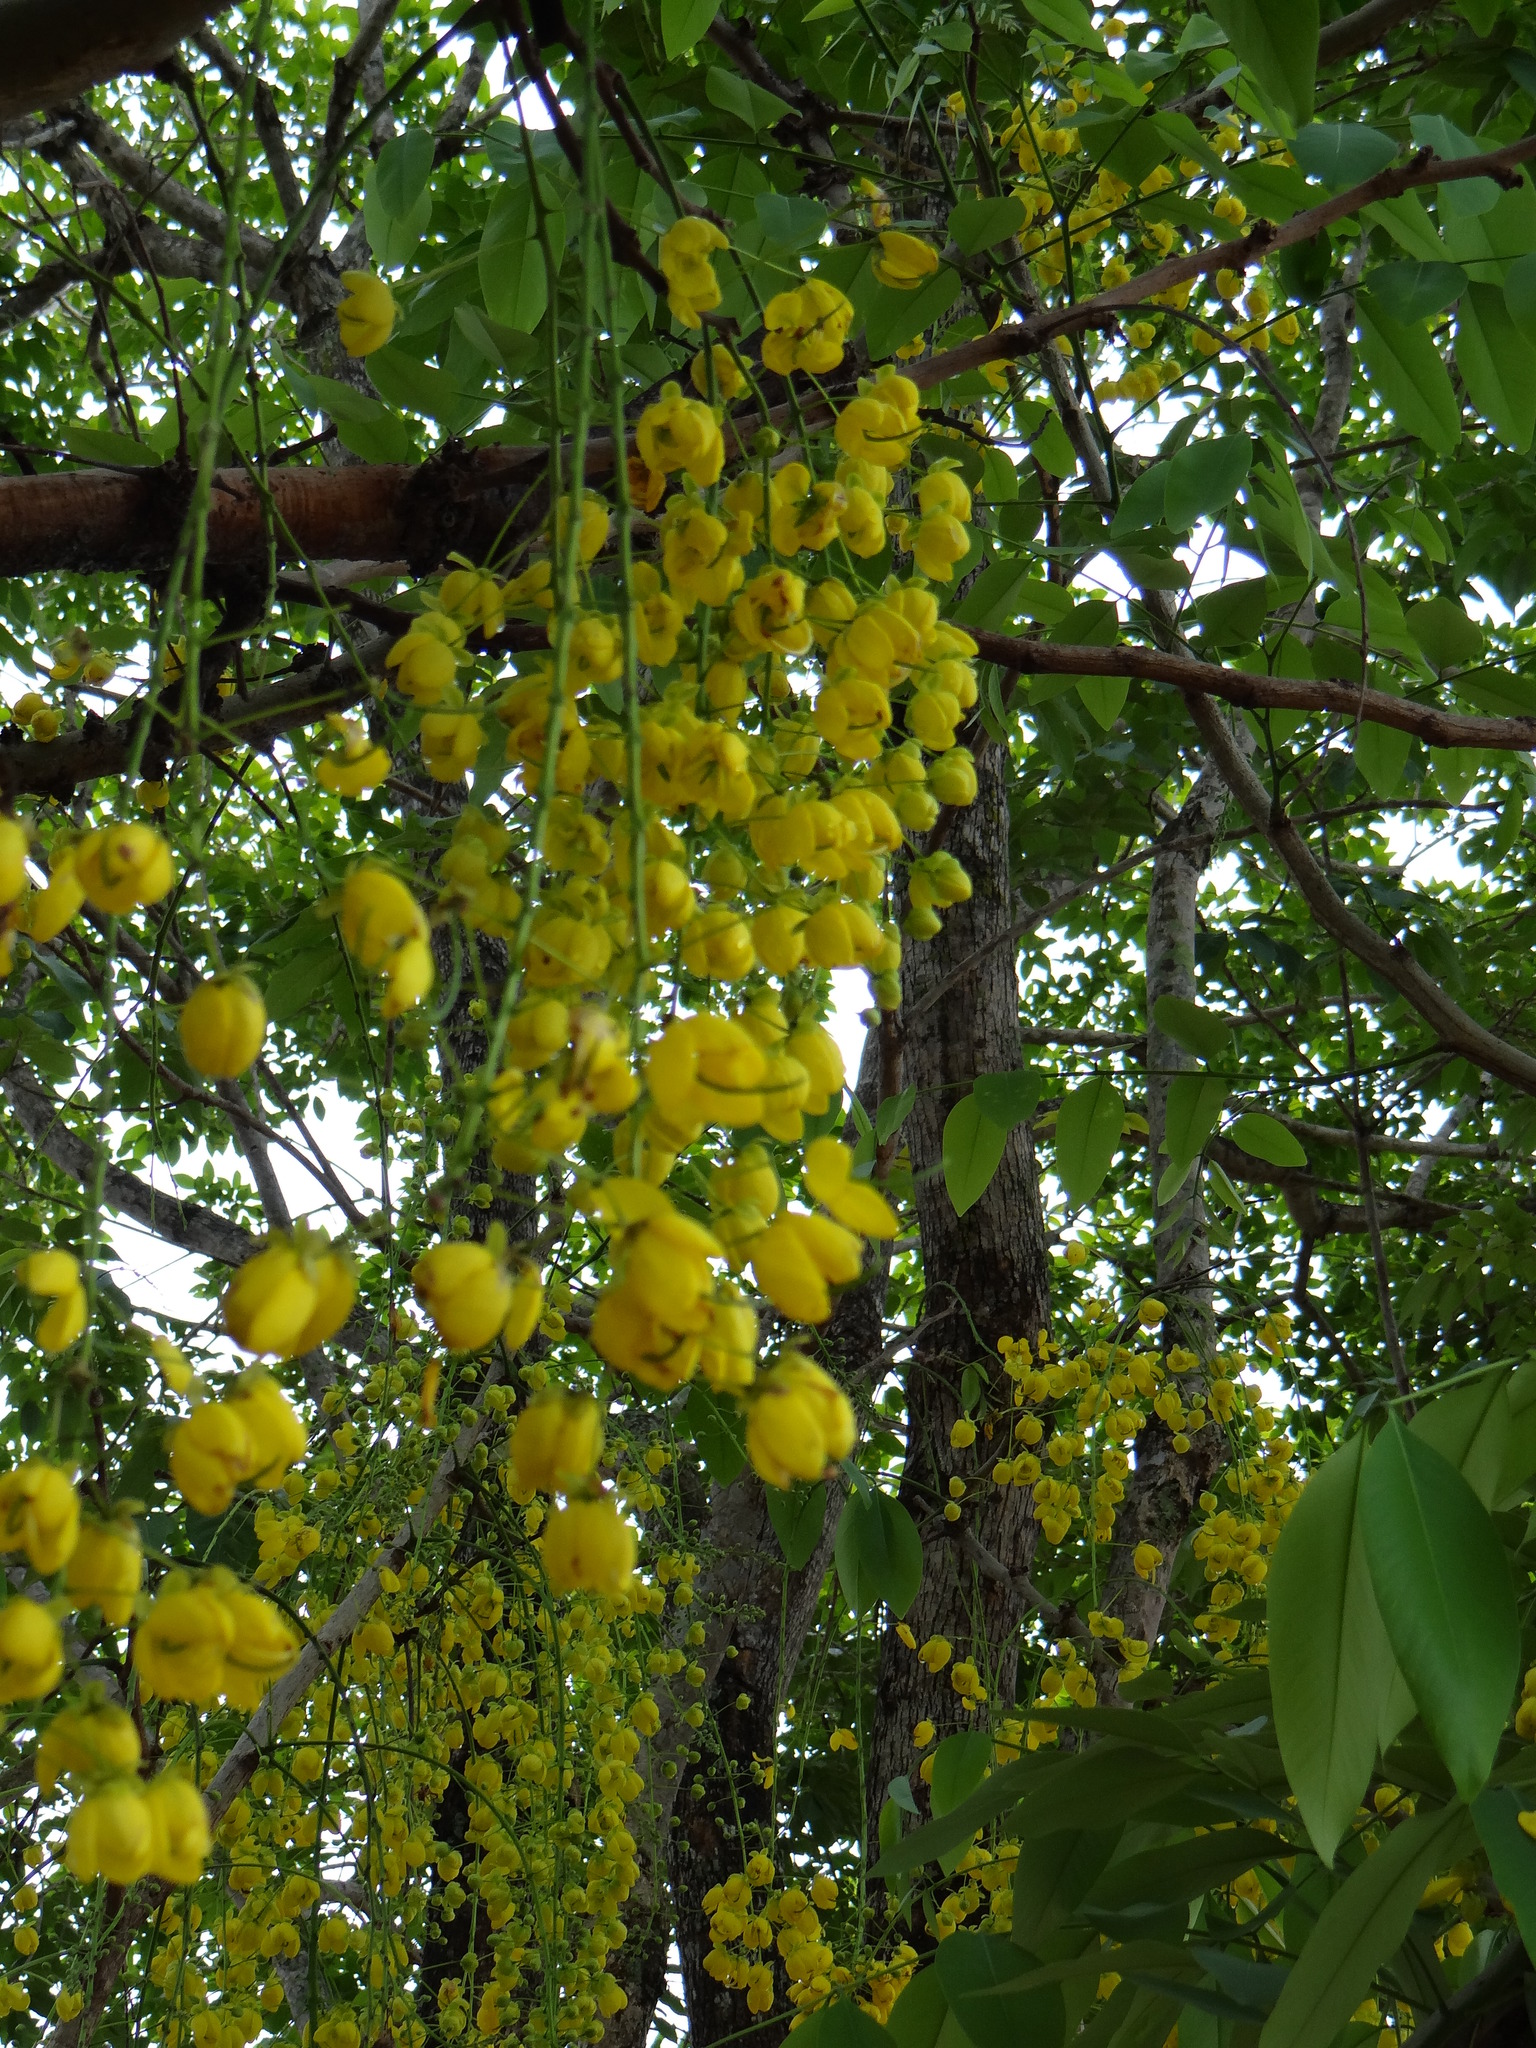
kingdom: Plantae
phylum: Tracheophyta
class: Magnoliopsida
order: Fabales
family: Fabaceae
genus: Cassia
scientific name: Cassia fistula
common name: Golden shower
